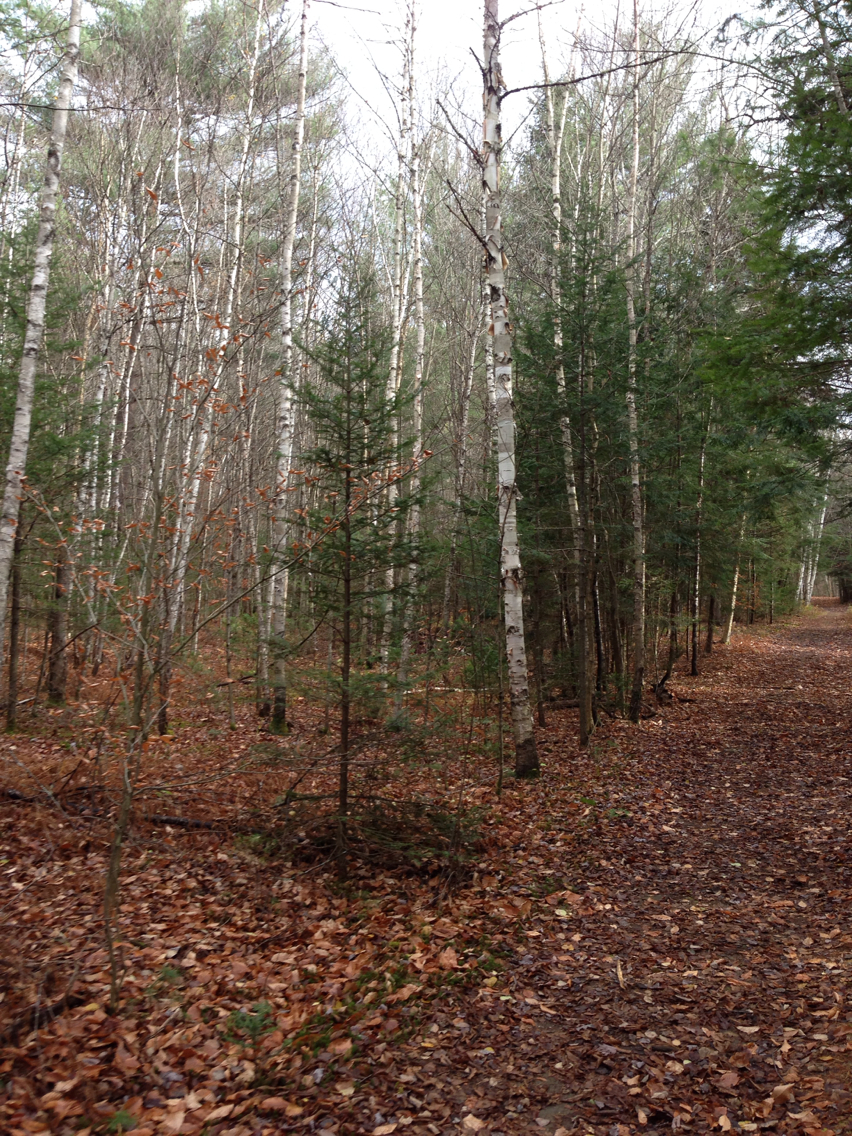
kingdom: Plantae
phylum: Tracheophyta
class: Magnoliopsida
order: Fagales
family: Betulaceae
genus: Betula
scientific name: Betula papyrifera
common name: Paper birch
